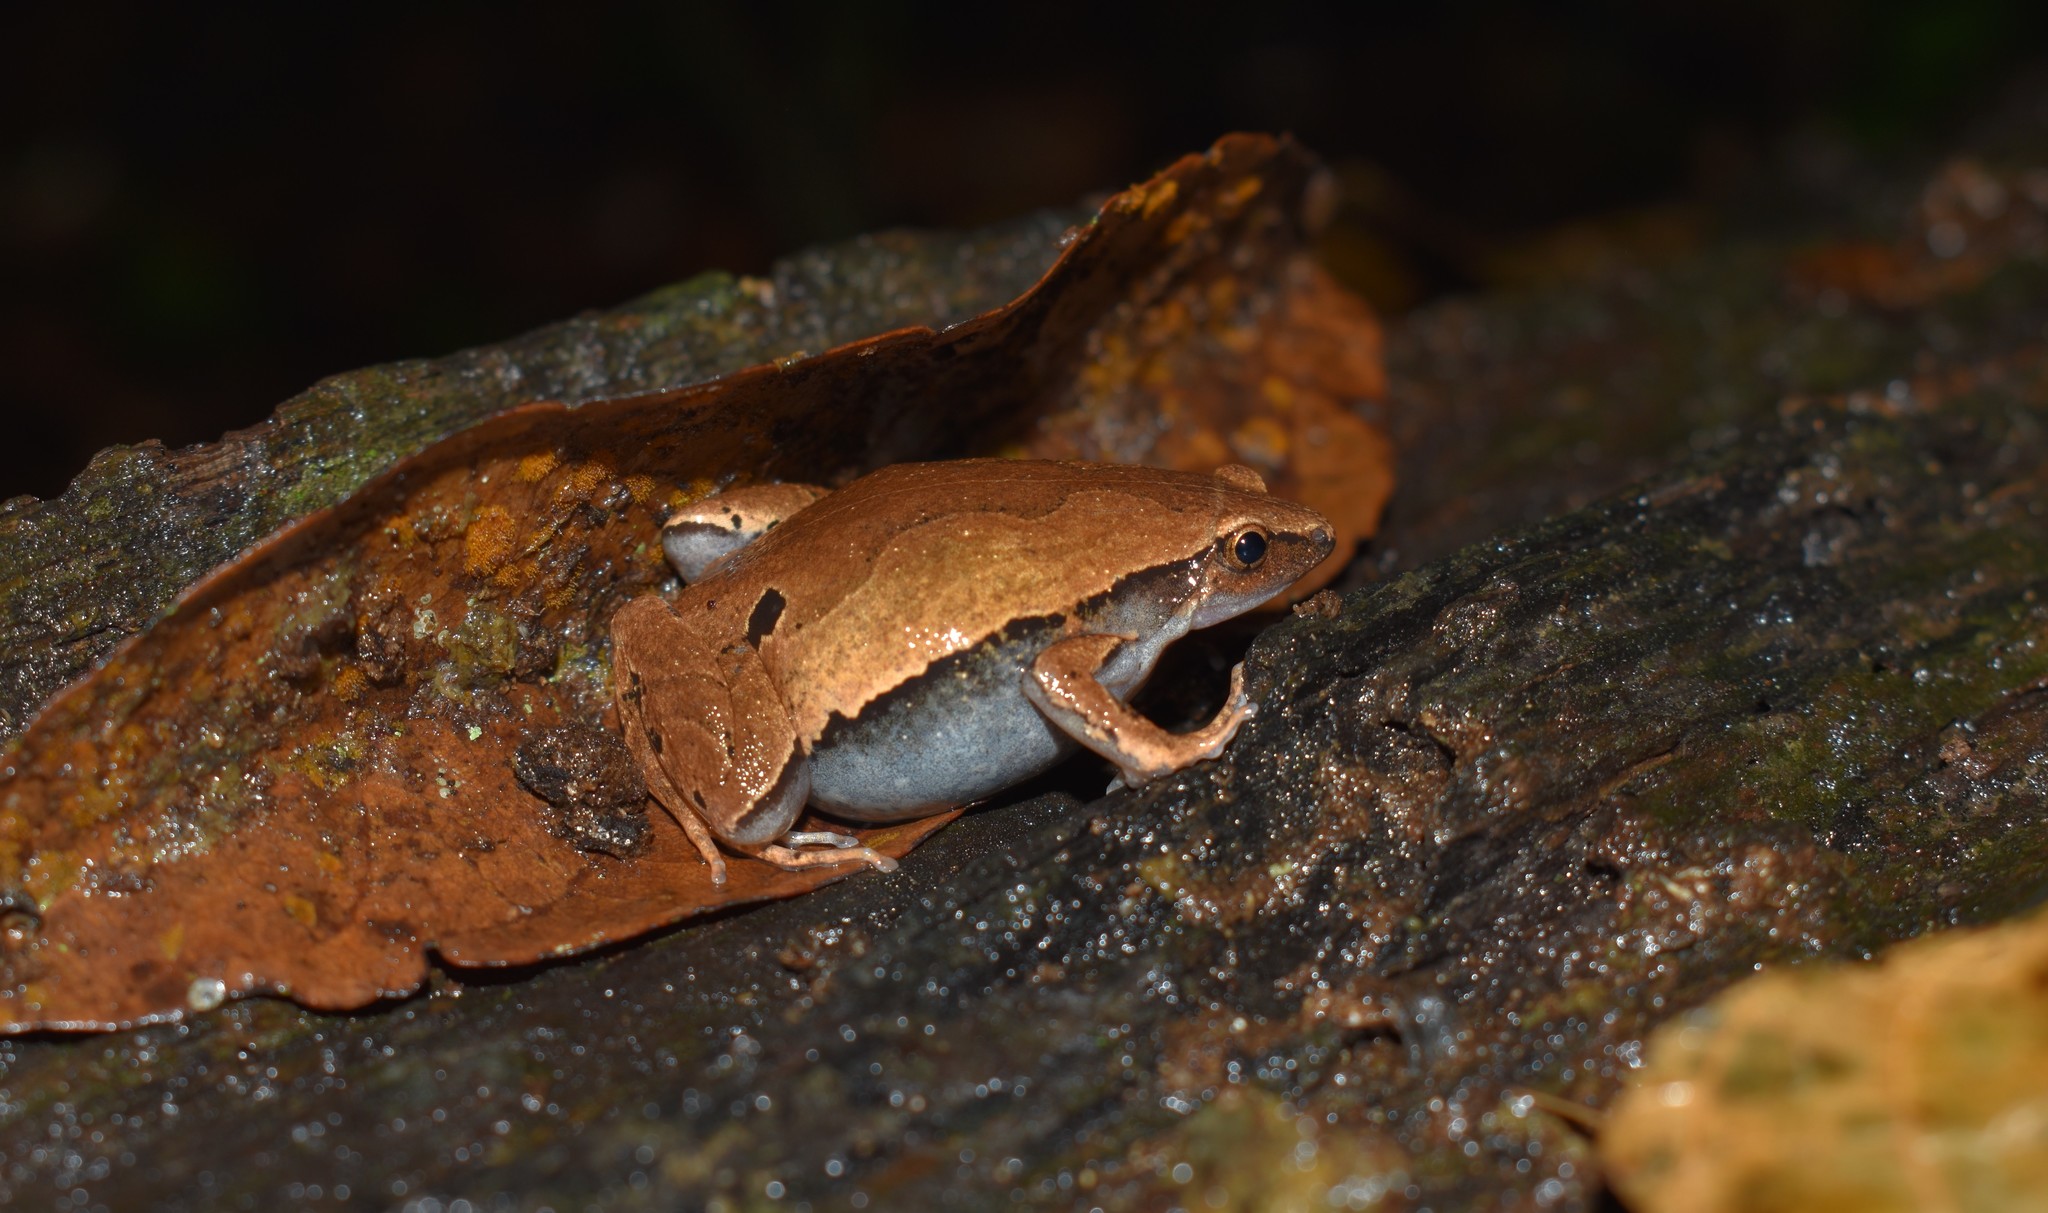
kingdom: Animalia
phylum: Chordata
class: Amphibia
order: Anura
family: Microhylidae
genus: Hamptophryne
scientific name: Hamptophryne boliviana
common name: Bolivian bleating frog
